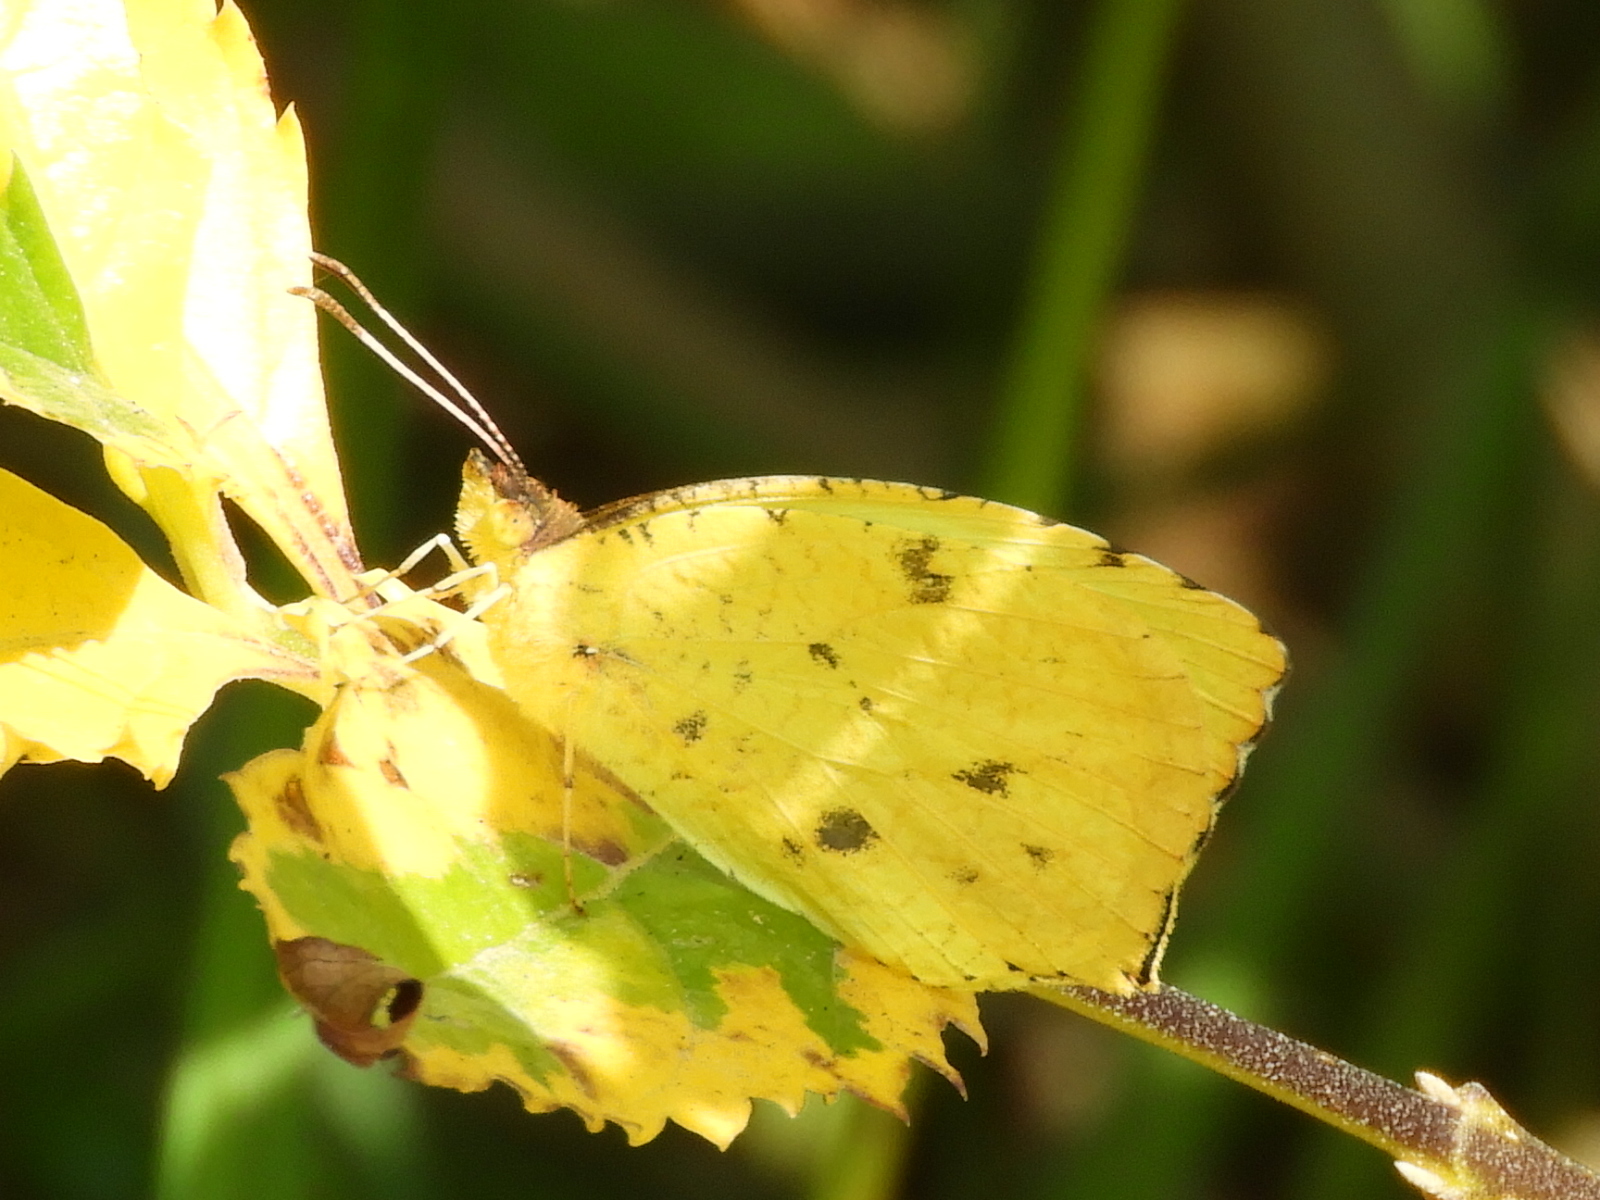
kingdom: Animalia
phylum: Arthropoda
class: Insecta
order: Lepidoptera
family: Pieridae
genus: Abaeis
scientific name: Abaeis salome
